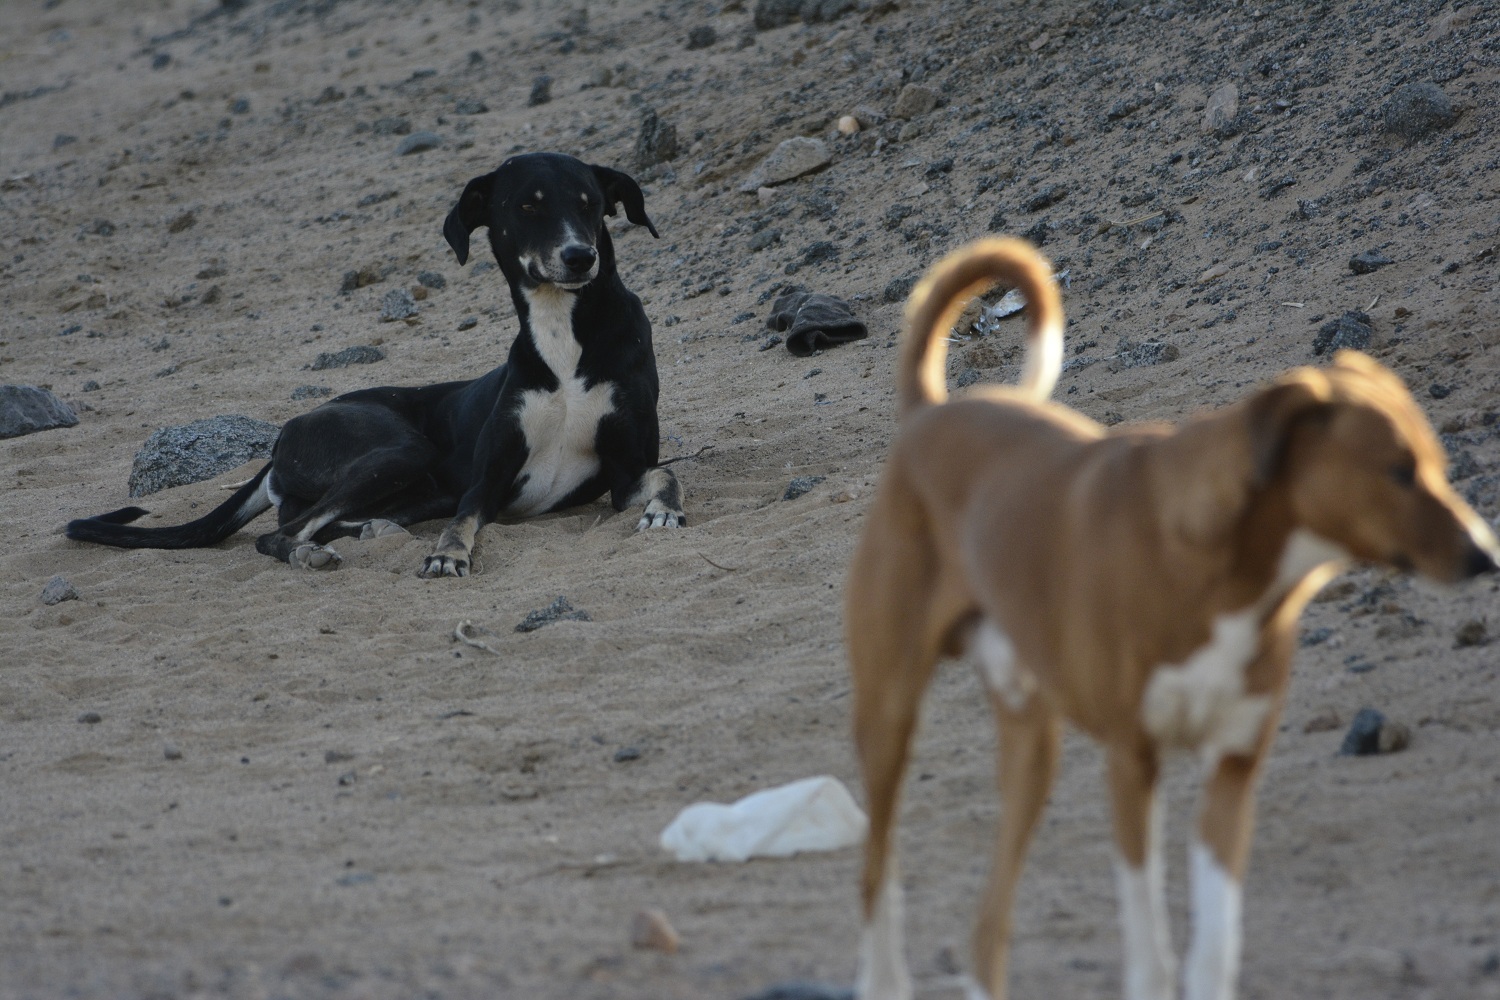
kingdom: Animalia
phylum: Chordata
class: Mammalia
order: Carnivora
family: Canidae
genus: Canis
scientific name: Canis lupus
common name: Gray wolf
